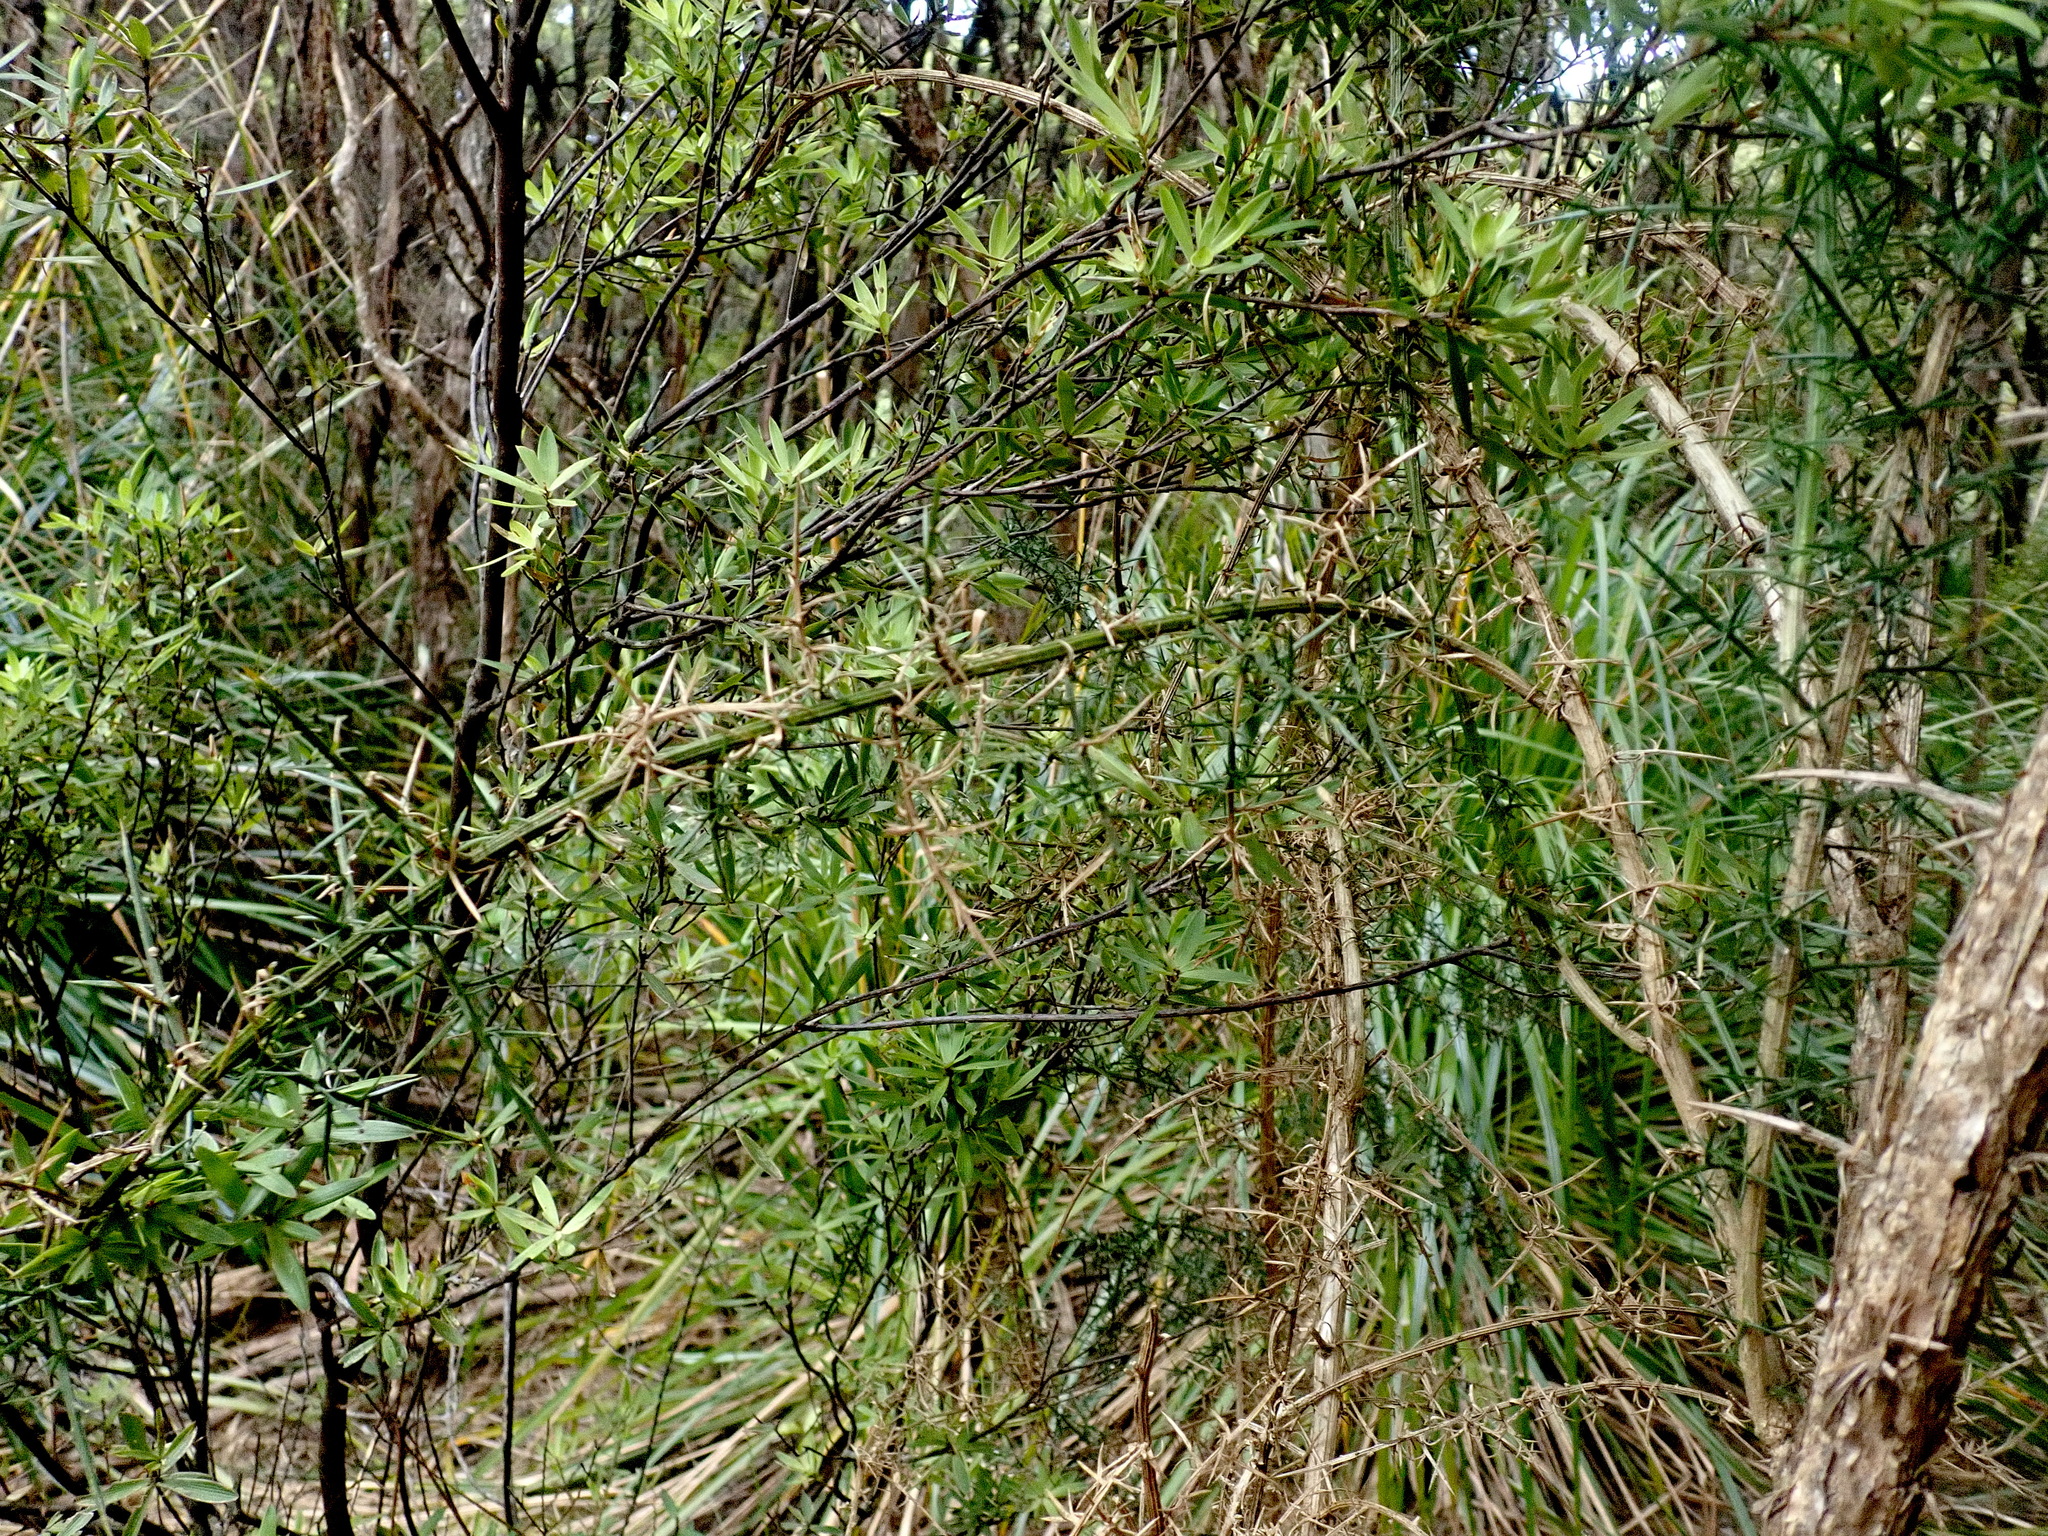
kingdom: Plantae
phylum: Tracheophyta
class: Magnoliopsida
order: Ericales
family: Ericaceae
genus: Leucopogon
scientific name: Leucopogon fasciculatus
